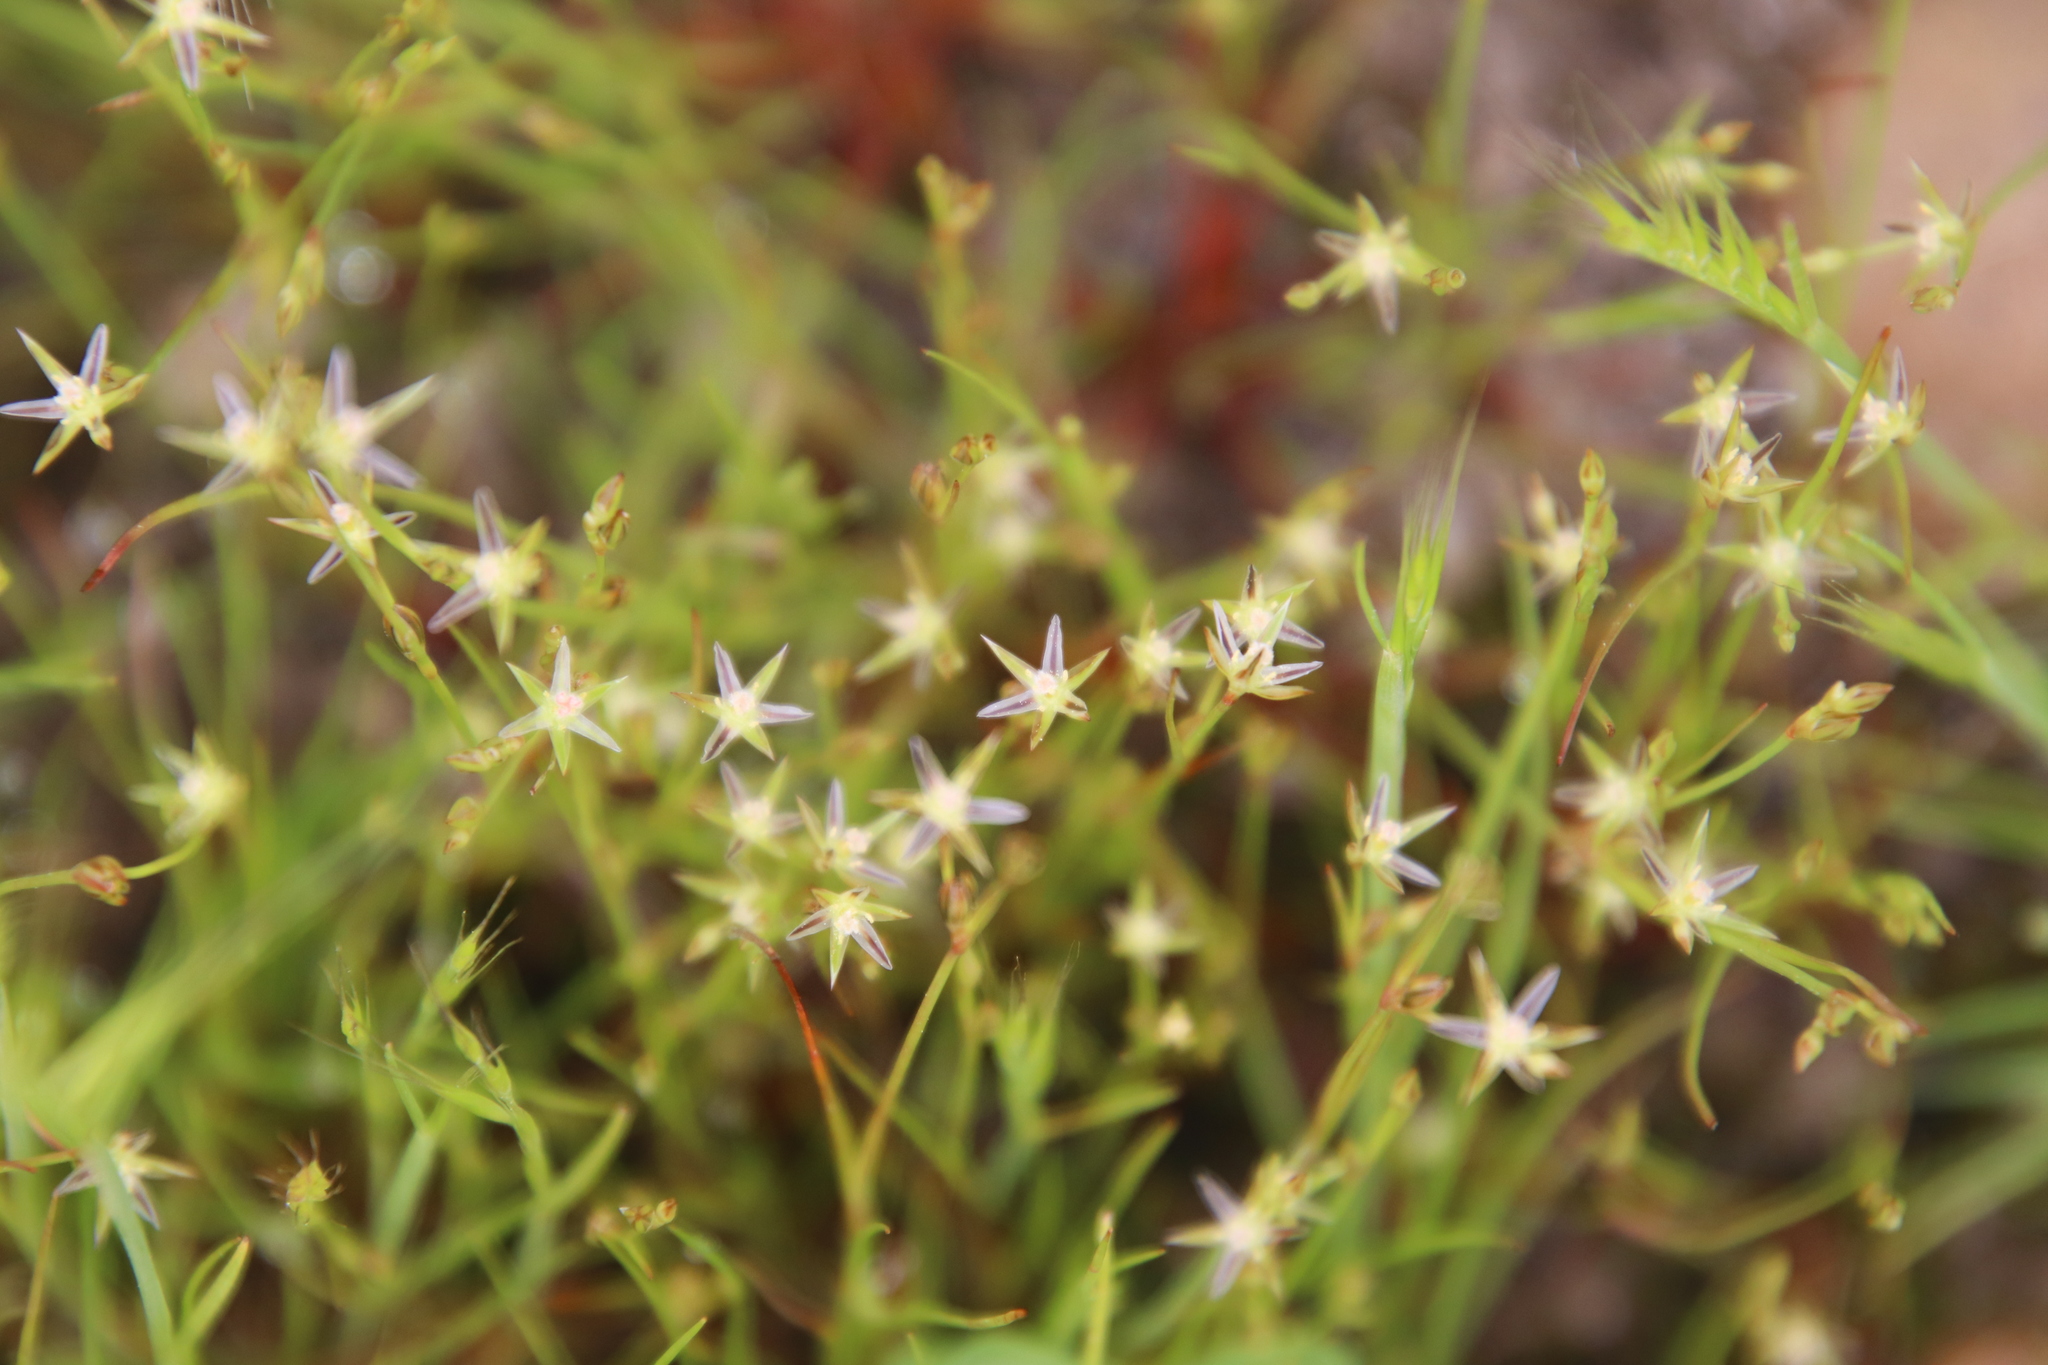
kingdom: Plantae
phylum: Tracheophyta
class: Liliopsida
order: Poales
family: Juncaceae
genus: Juncus
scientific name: Juncus bufonius
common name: Toad rush
